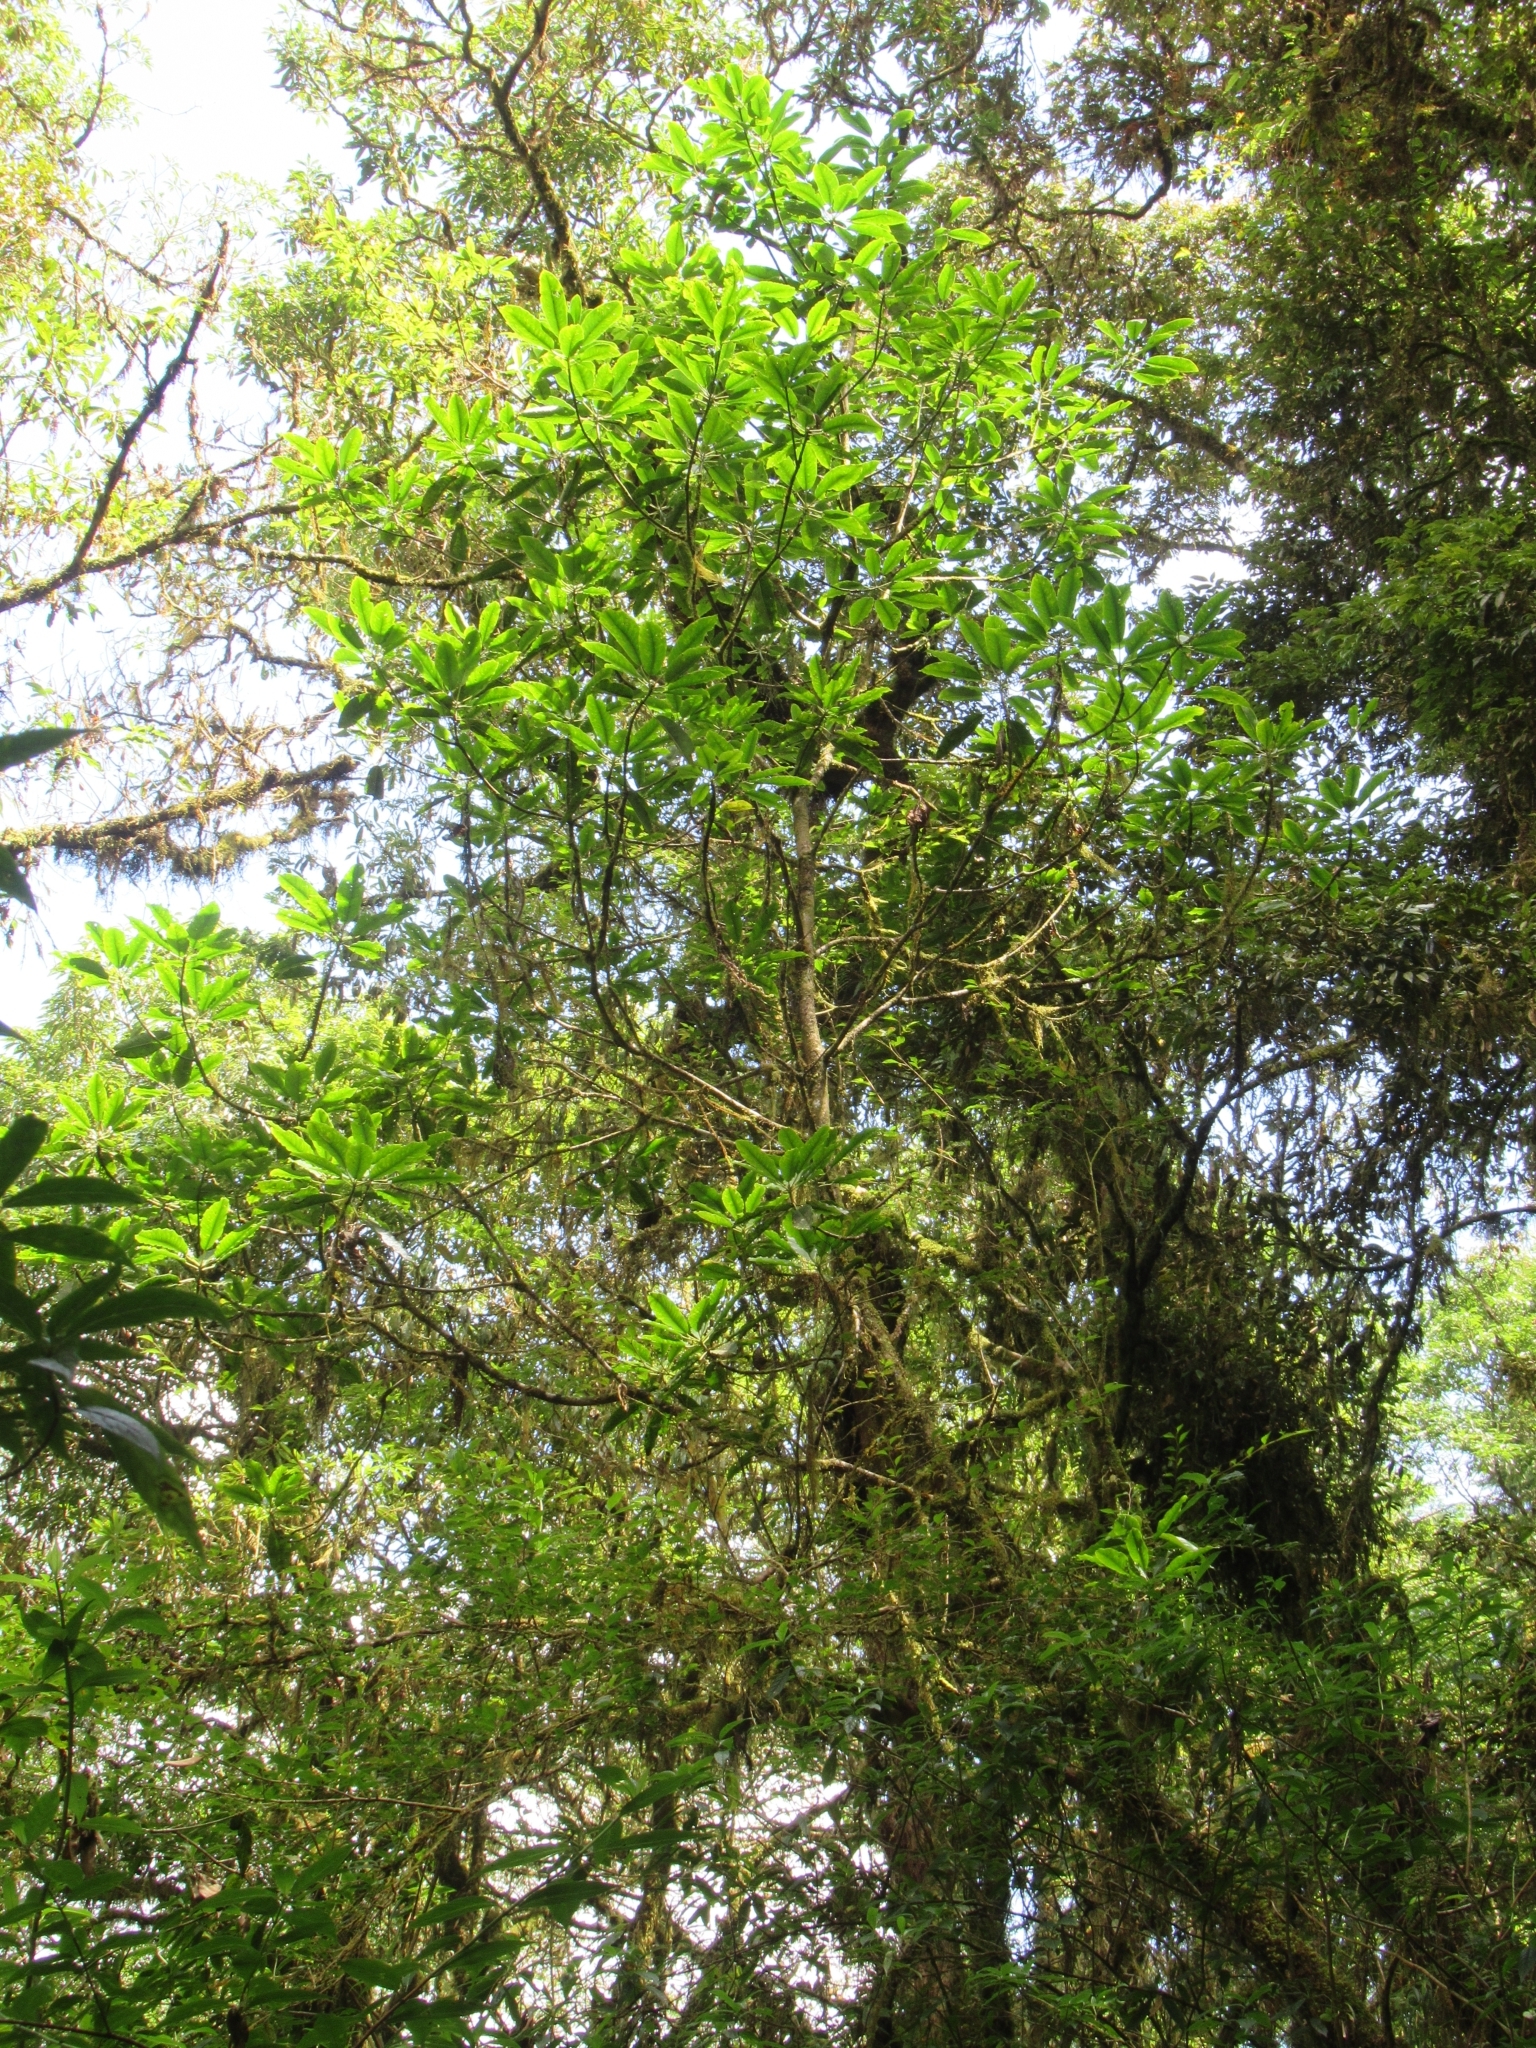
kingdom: Plantae
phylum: Tracheophyta
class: Magnoliopsida
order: Saxifragales
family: Daphniphyllaceae
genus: Daphniphyllum
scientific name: Daphniphyllum pentandrum
